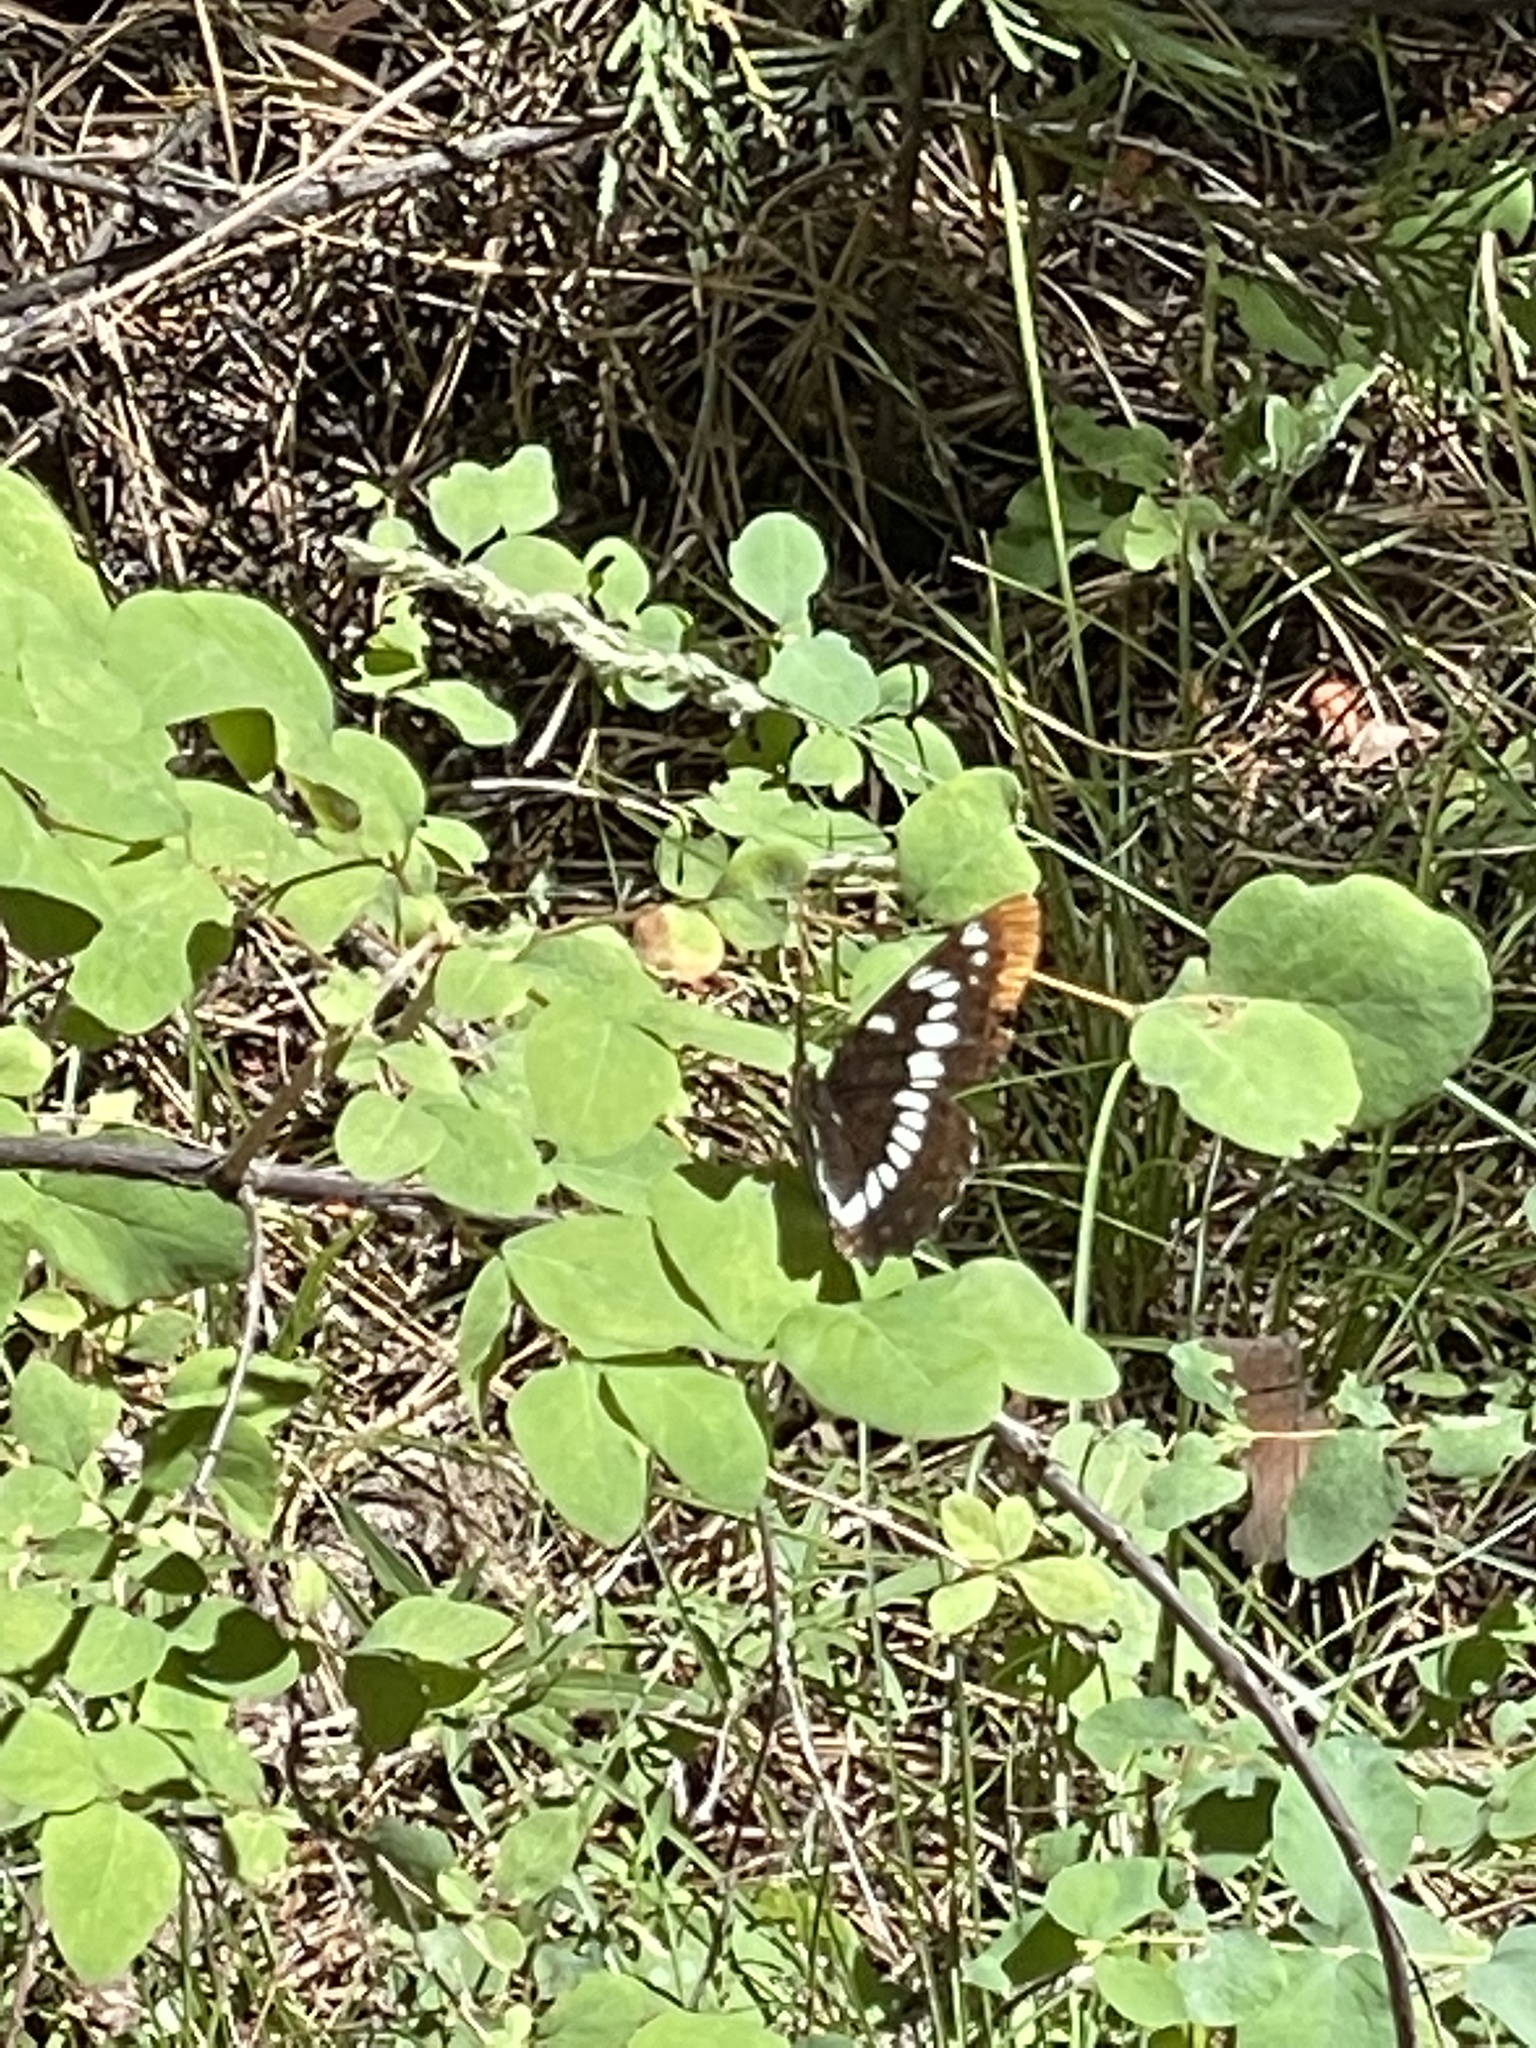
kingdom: Animalia
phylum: Arthropoda
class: Insecta
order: Lepidoptera
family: Nymphalidae
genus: Limenitis
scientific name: Limenitis lorquini
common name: Lorquin's admiral
